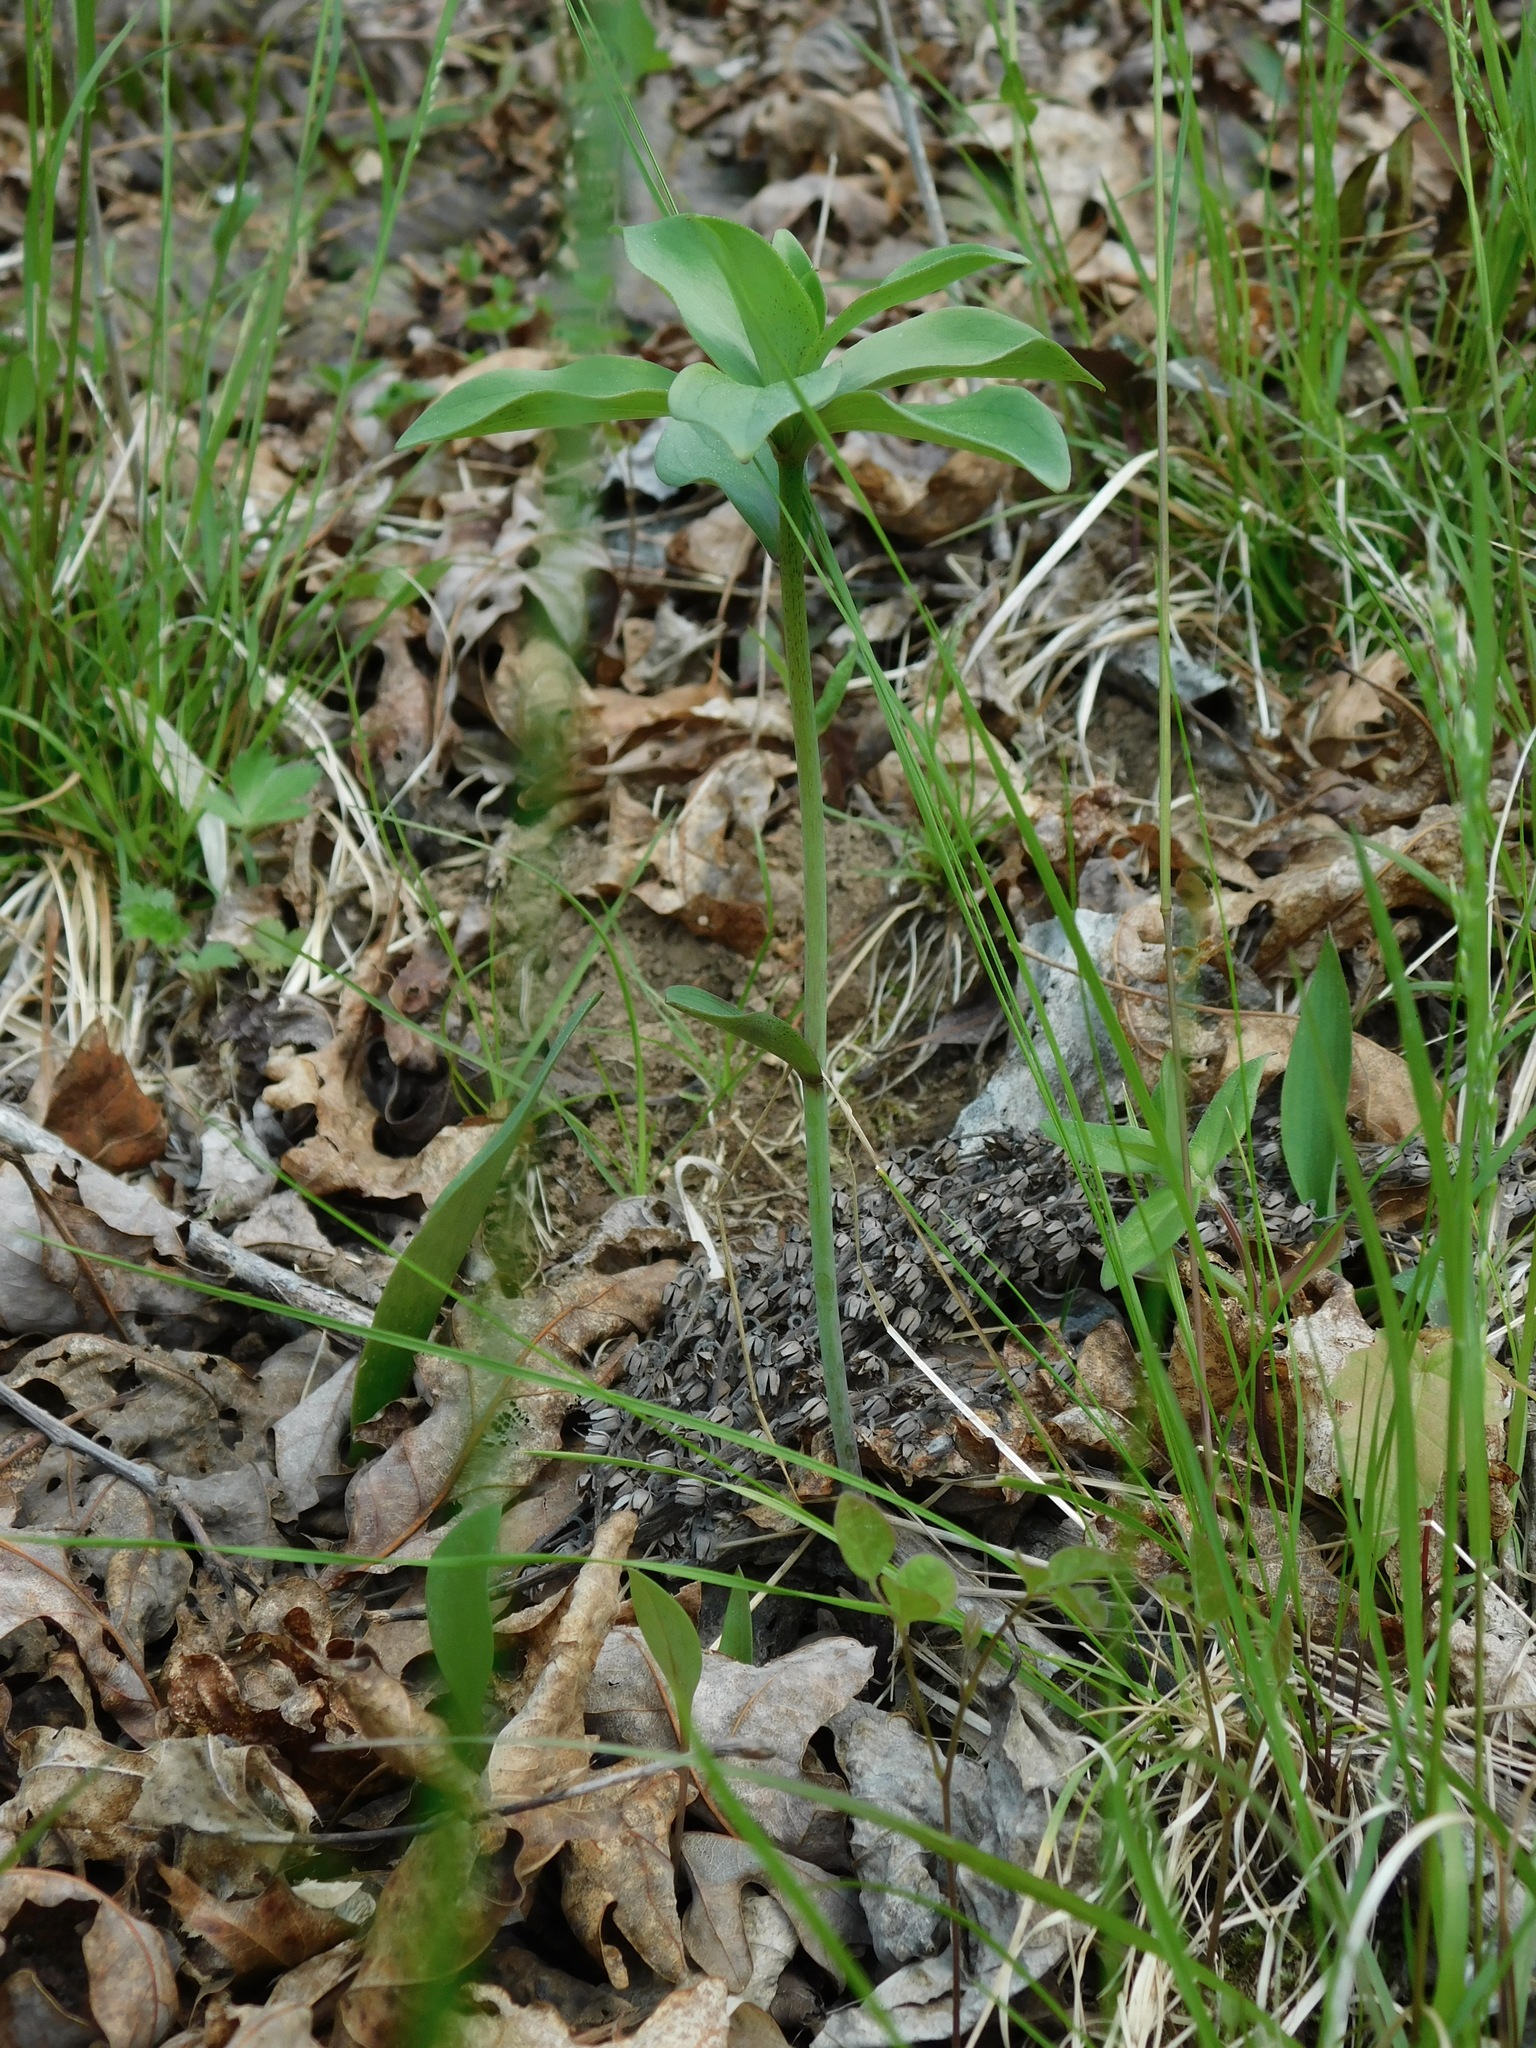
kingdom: Plantae
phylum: Tracheophyta
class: Liliopsida
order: Liliales
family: Liliaceae
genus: Lilium
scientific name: Lilium michauxii
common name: Carolina lily
